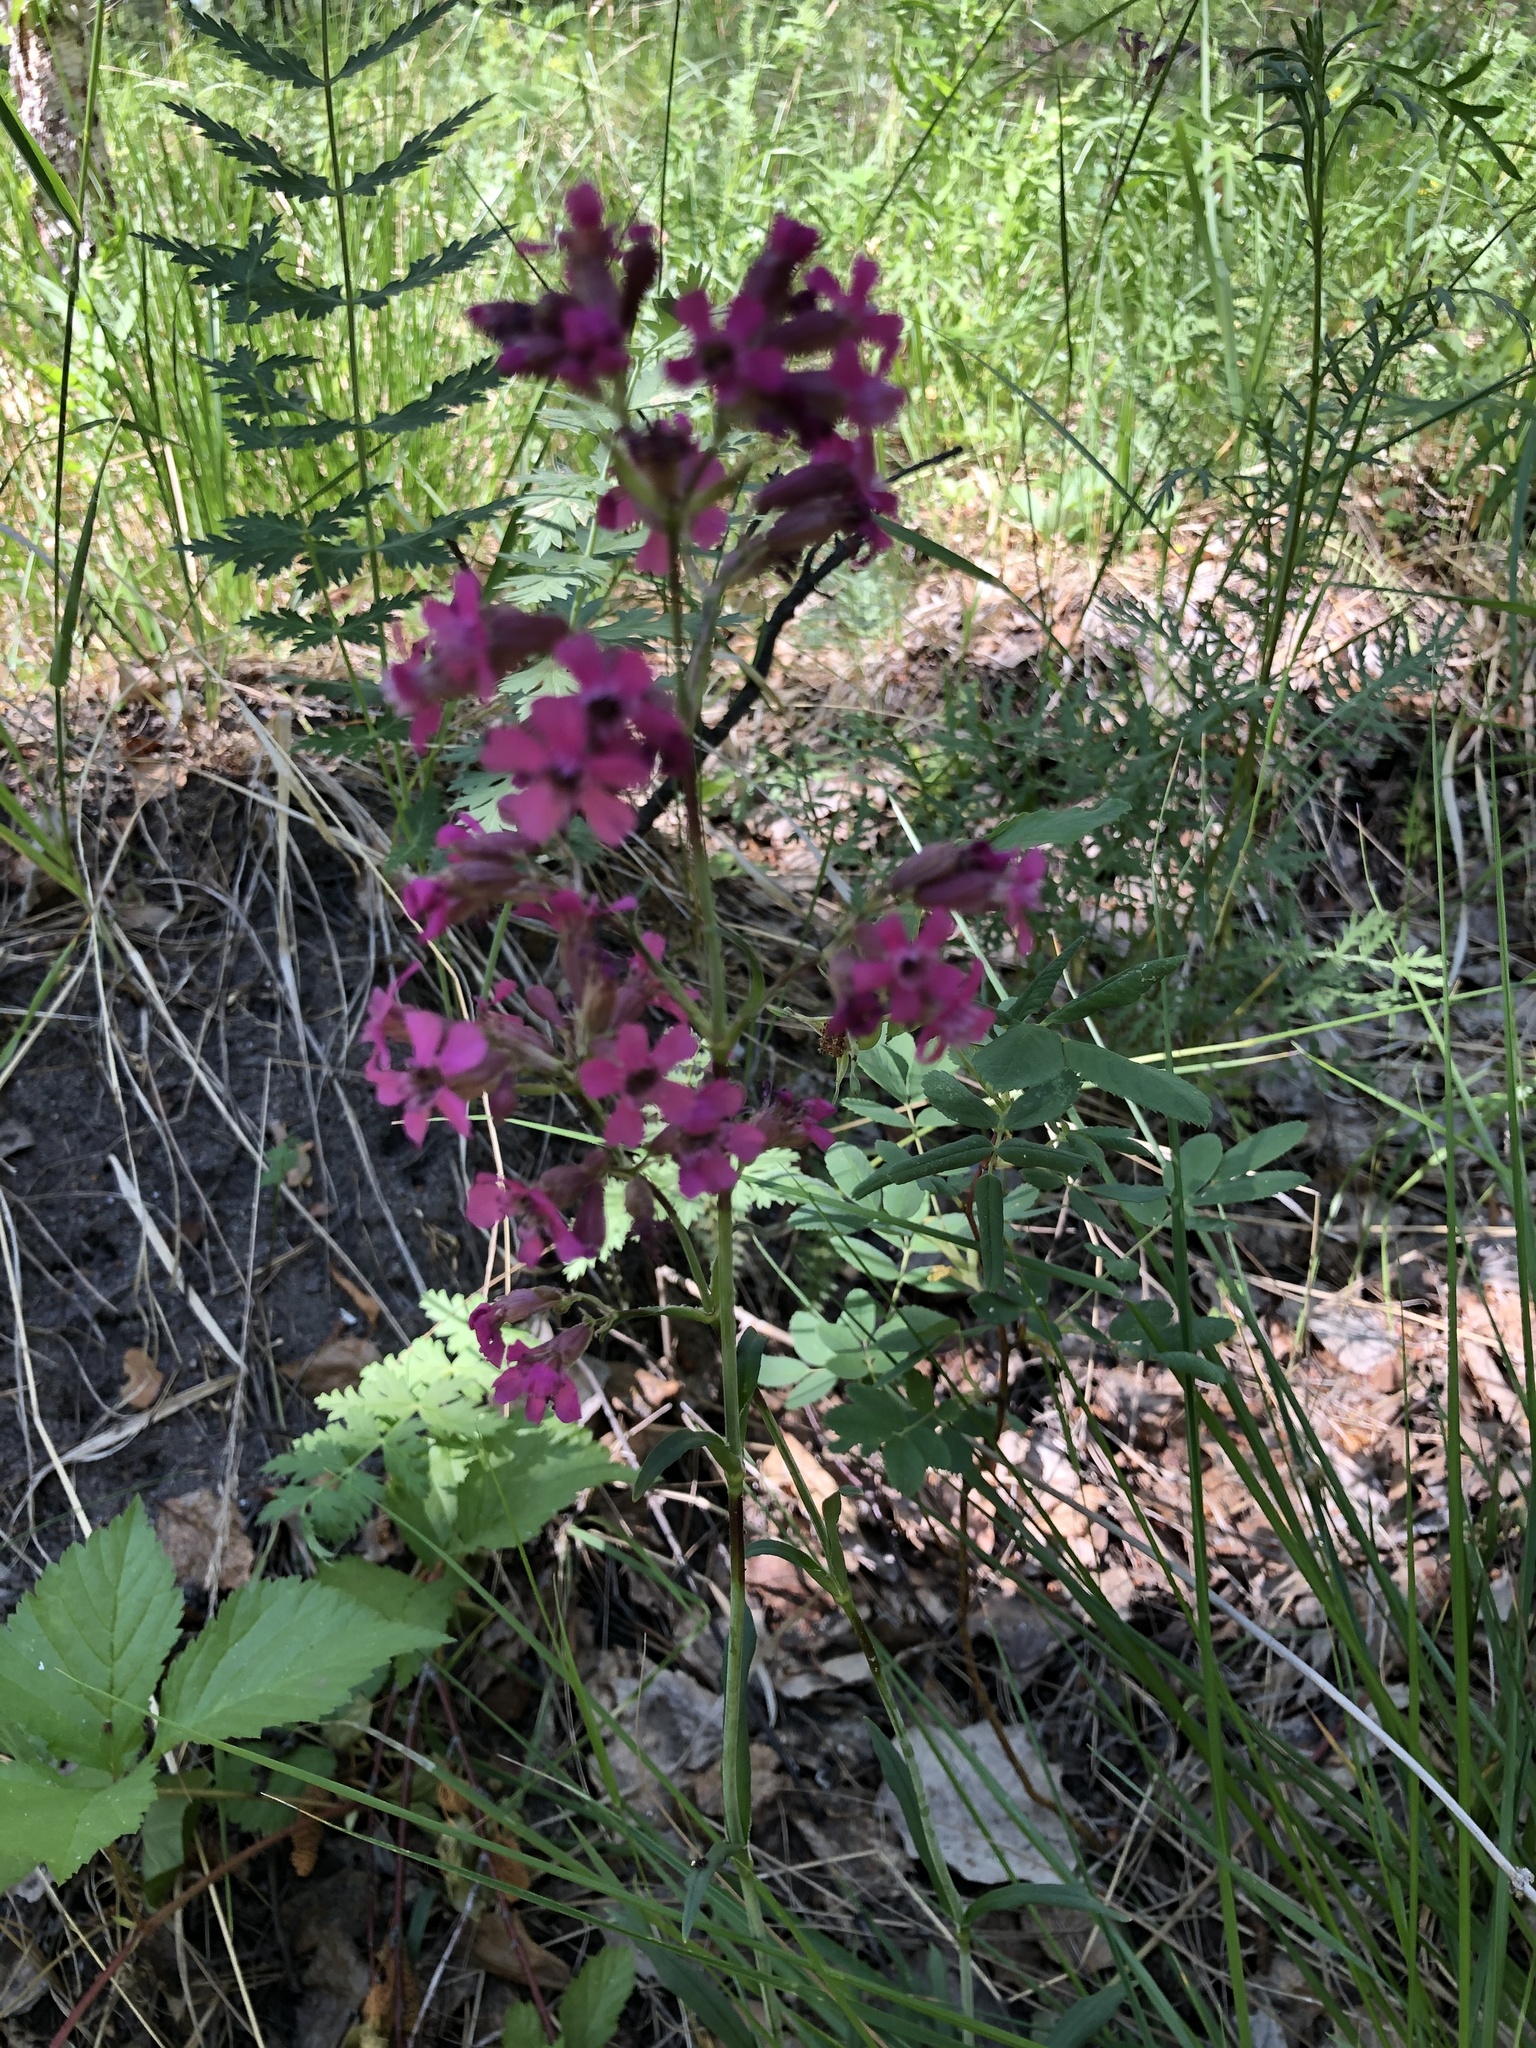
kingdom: Plantae
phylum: Tracheophyta
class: Magnoliopsida
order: Caryophyllales
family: Caryophyllaceae
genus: Viscaria
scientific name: Viscaria vulgaris
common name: Clammy campion
